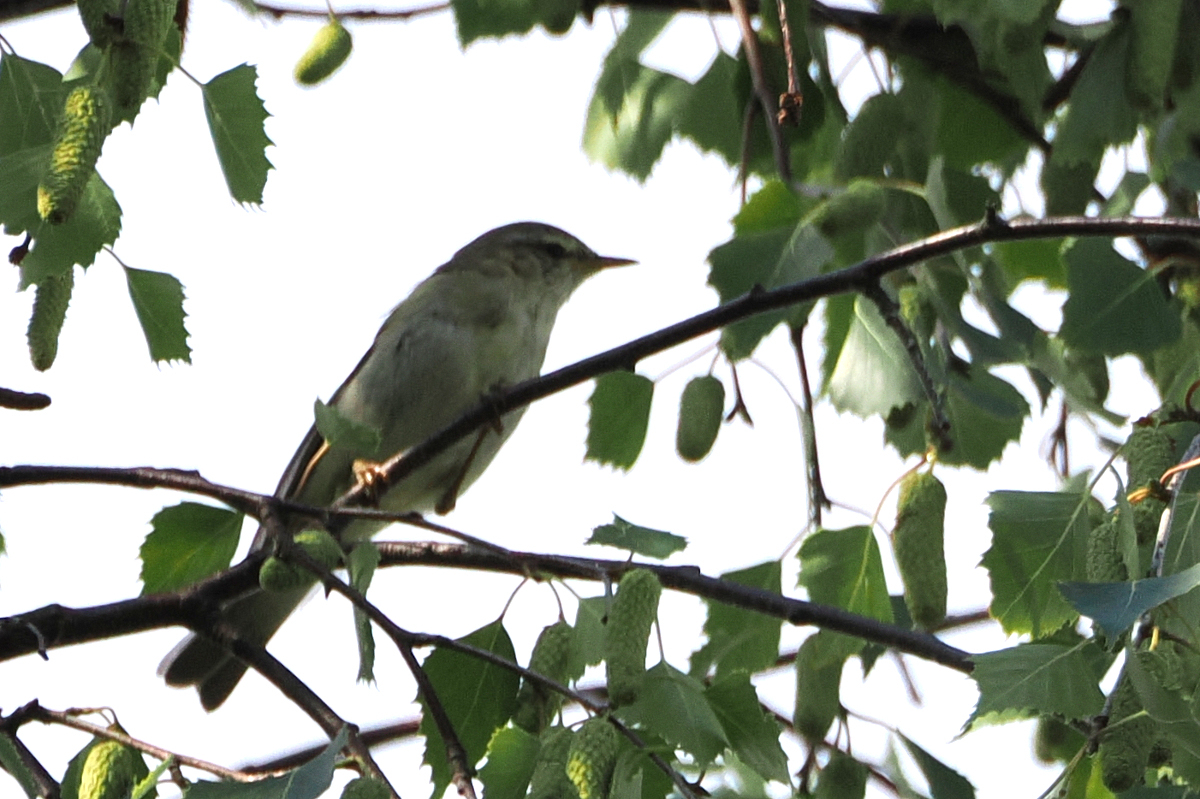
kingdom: Animalia
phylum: Chordata
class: Aves
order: Passeriformes
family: Phylloscopidae
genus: Phylloscopus
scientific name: Phylloscopus trochilus
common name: Willow warbler
